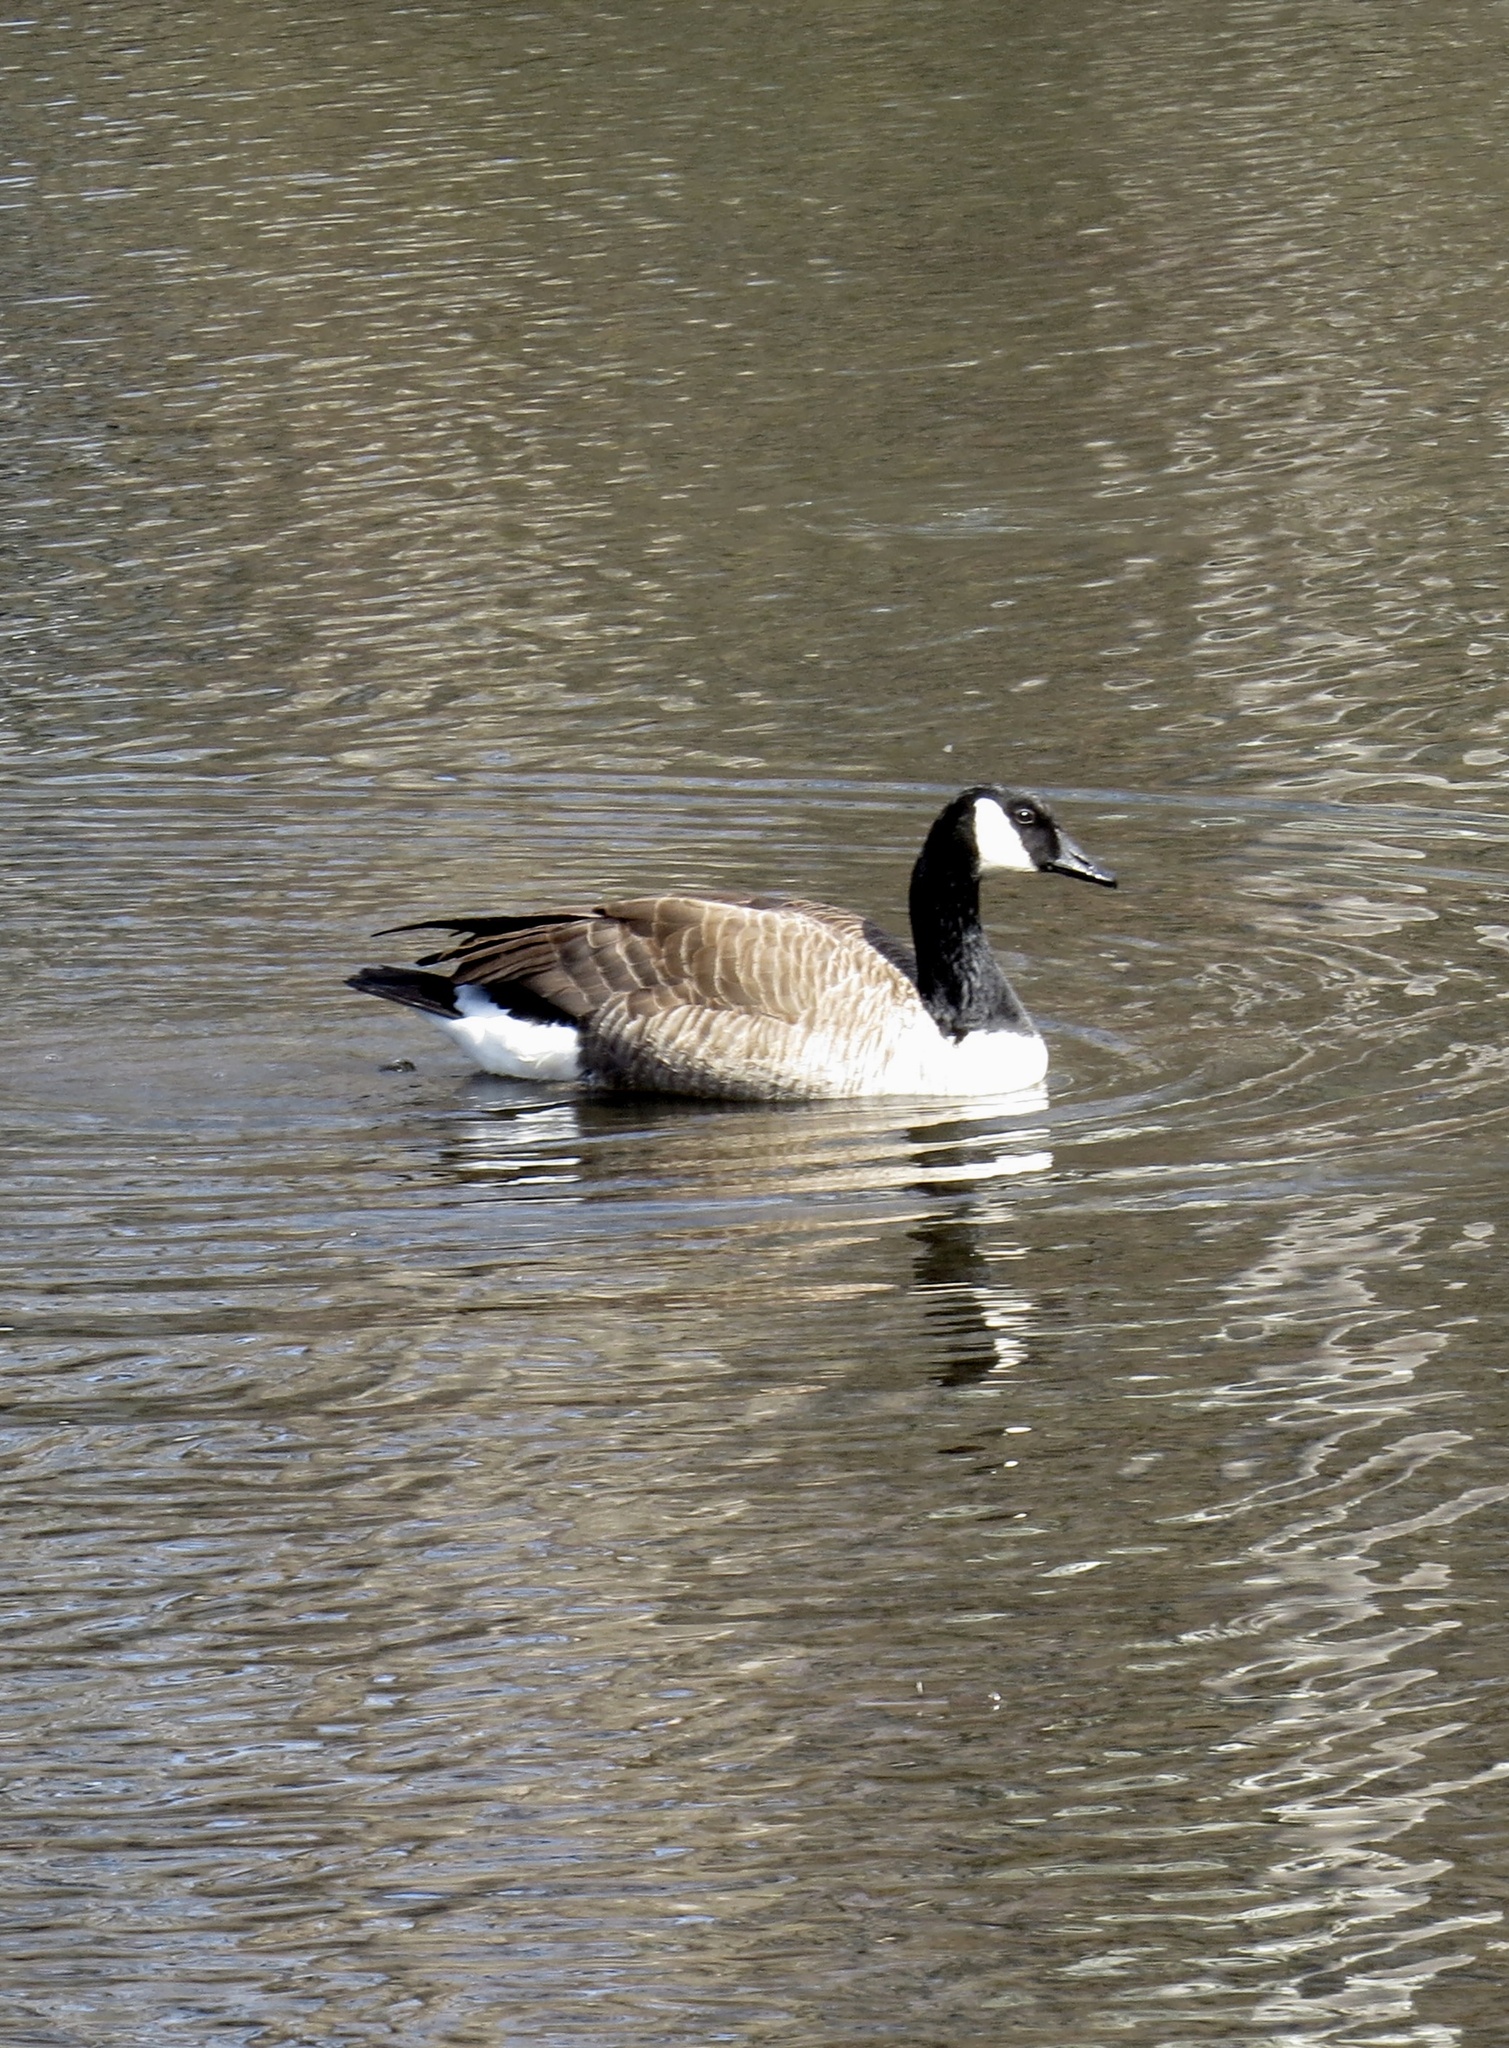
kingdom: Animalia
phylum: Chordata
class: Aves
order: Anseriformes
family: Anatidae
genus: Branta
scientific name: Branta canadensis
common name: Canada goose
